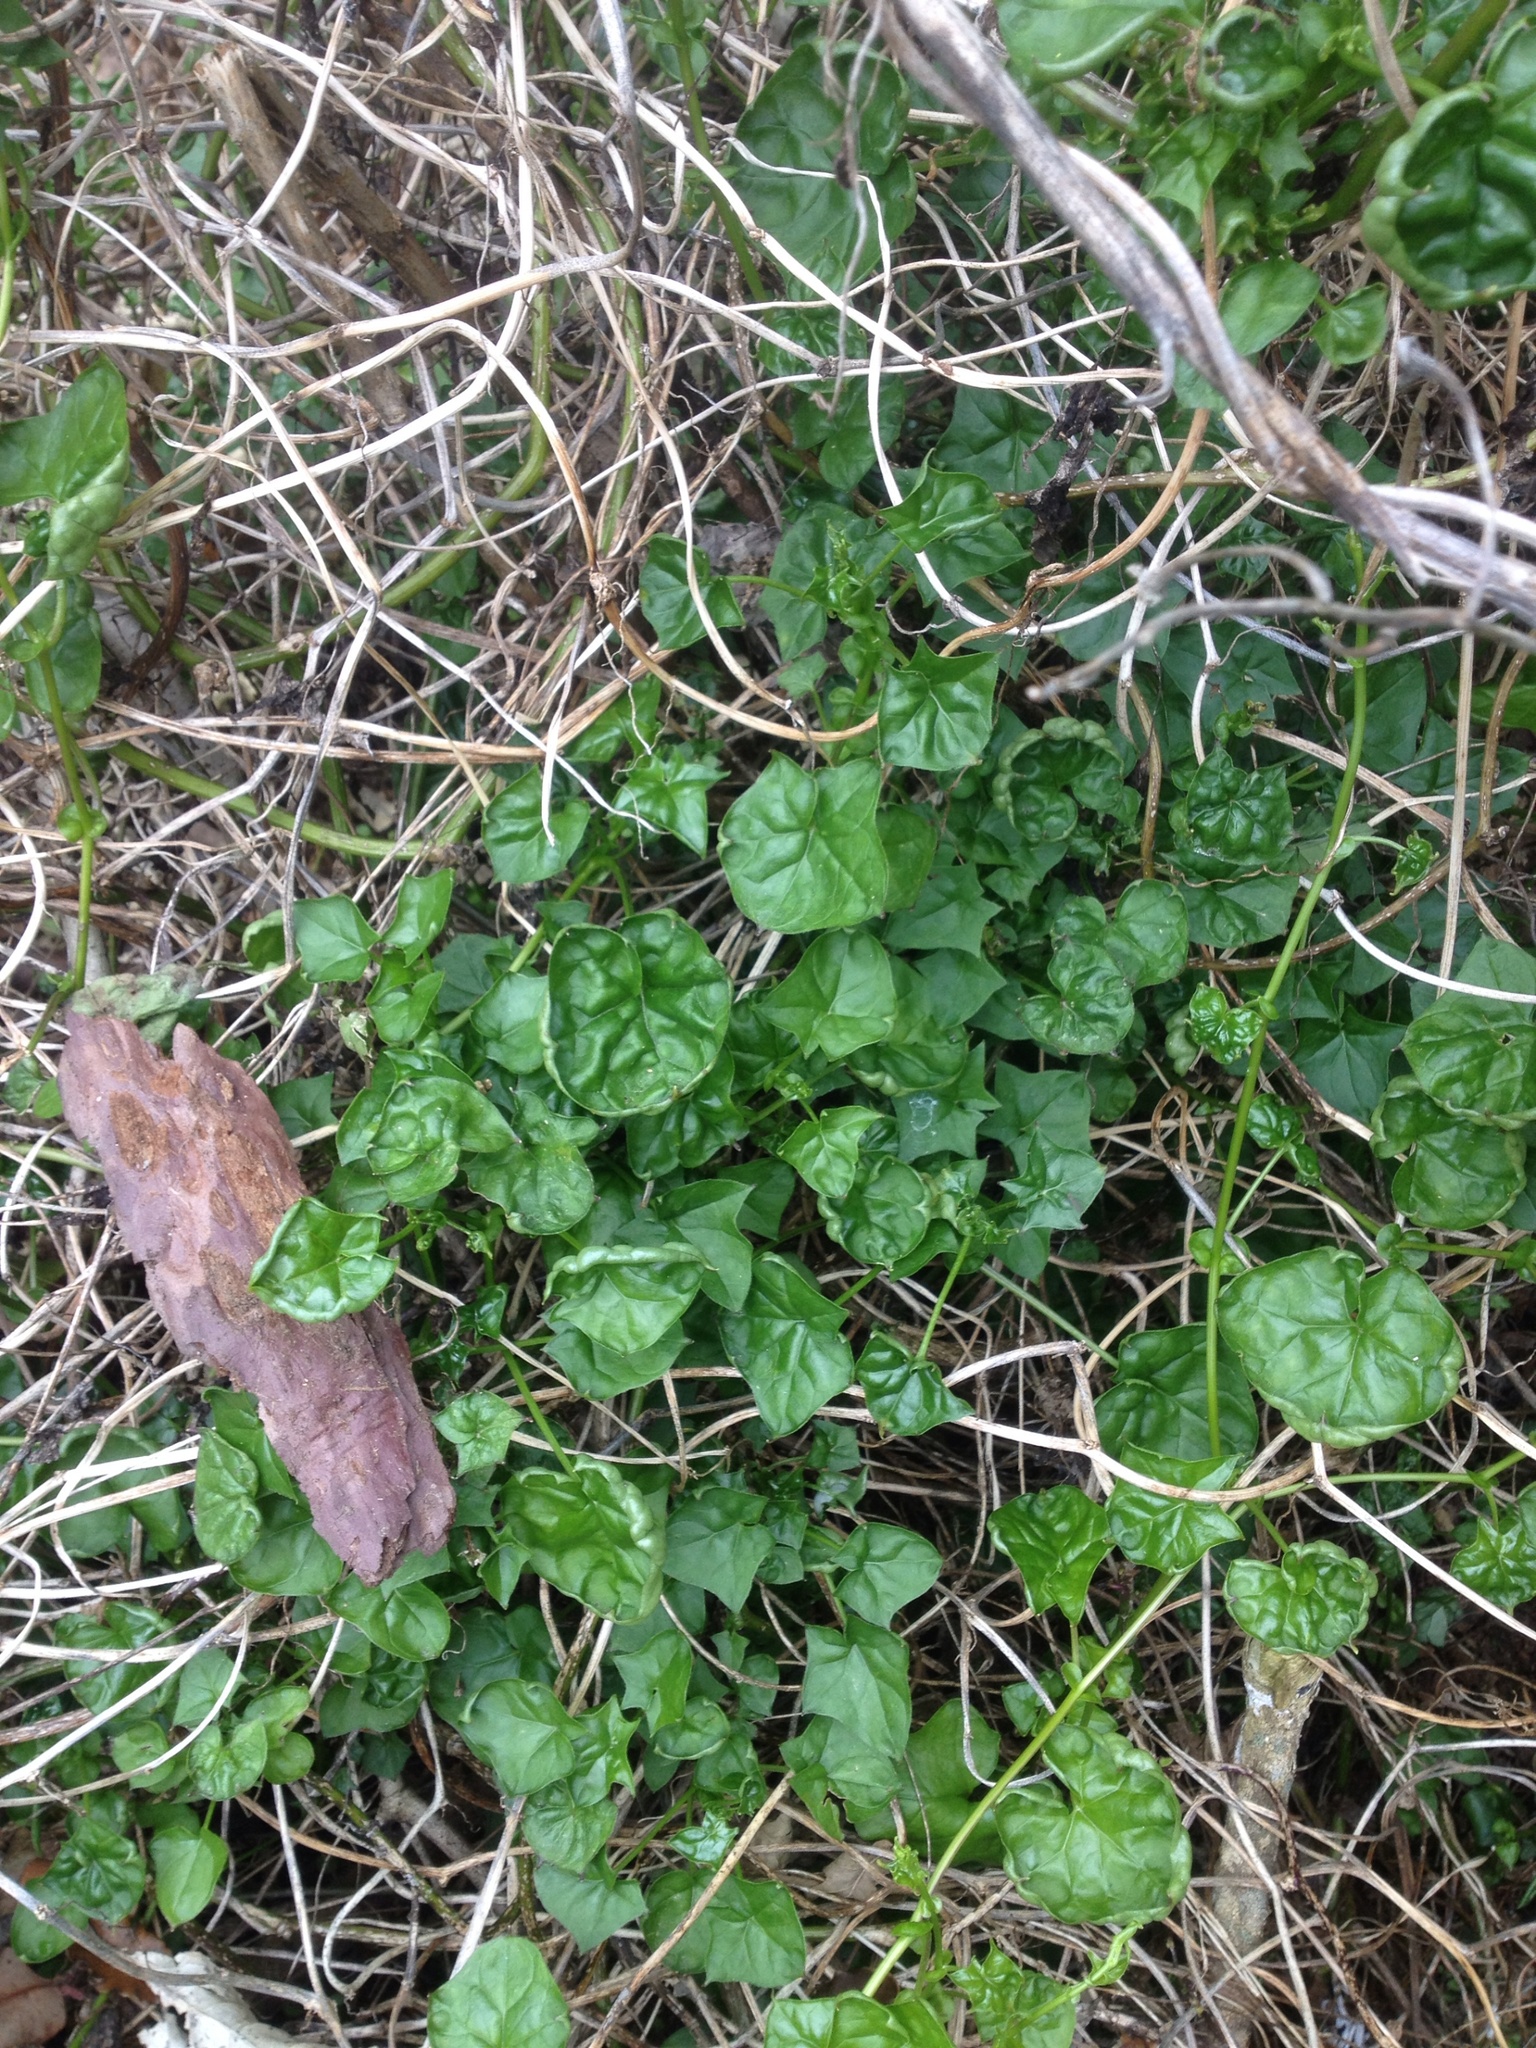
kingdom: Plantae
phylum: Tracheophyta
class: Magnoliopsida
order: Asterales
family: Asteraceae
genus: Delairea
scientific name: Delairea odorata
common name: Cape-ivy
